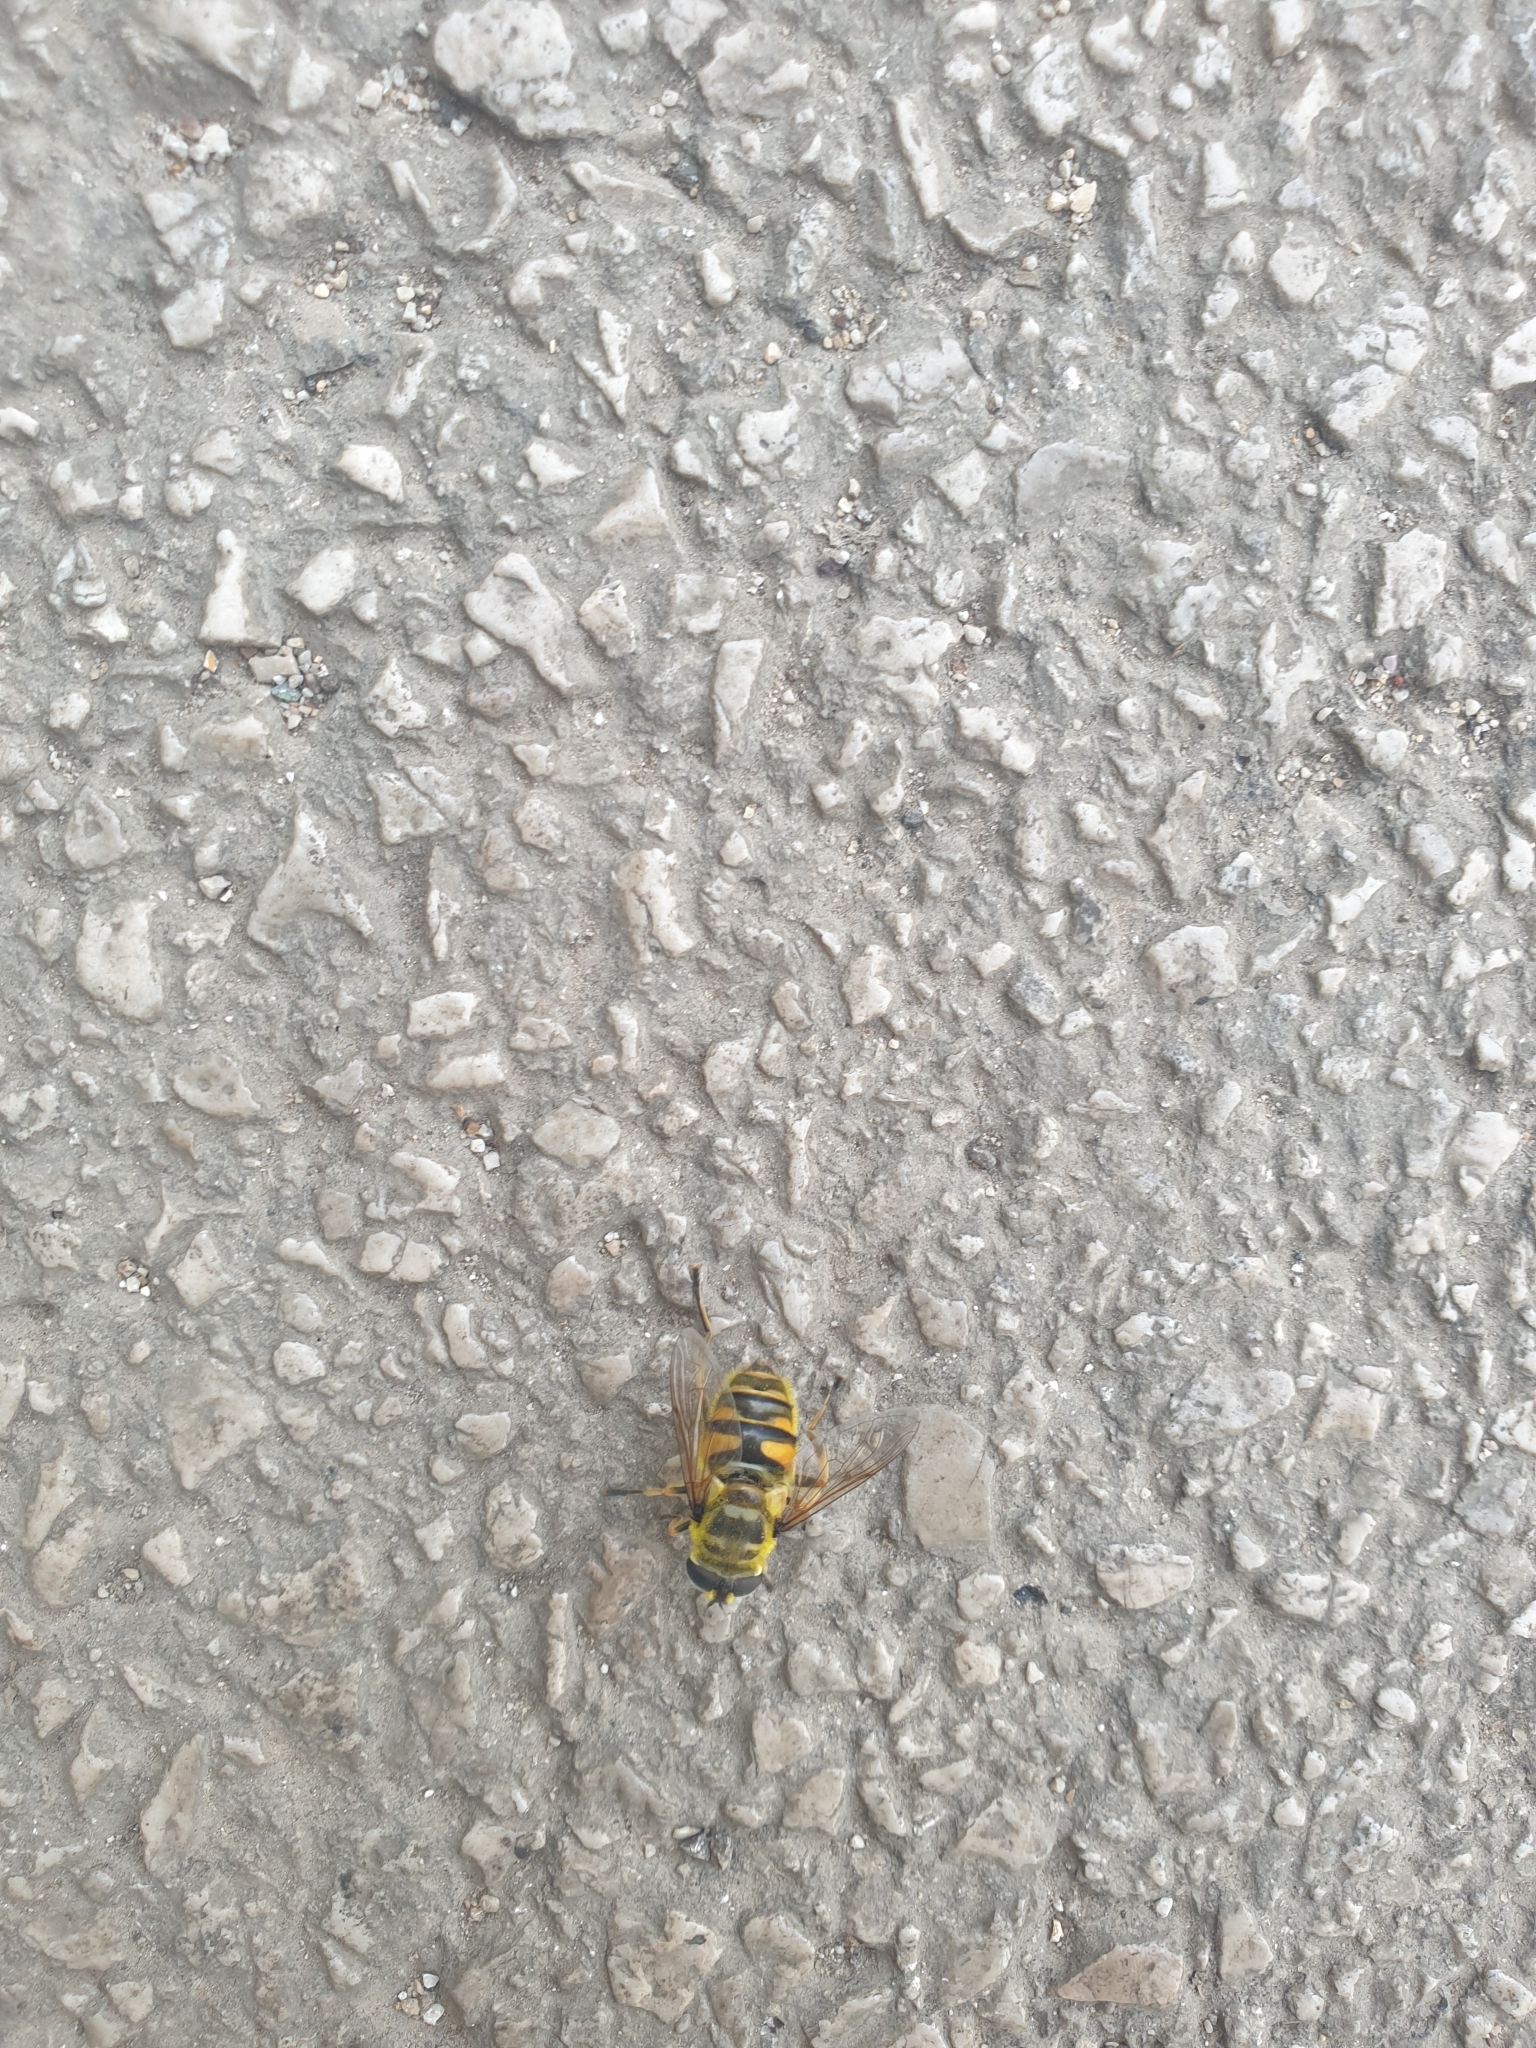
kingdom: Animalia
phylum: Arthropoda
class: Insecta
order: Diptera
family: Syrphidae
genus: Myathropa
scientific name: Myathropa florea
